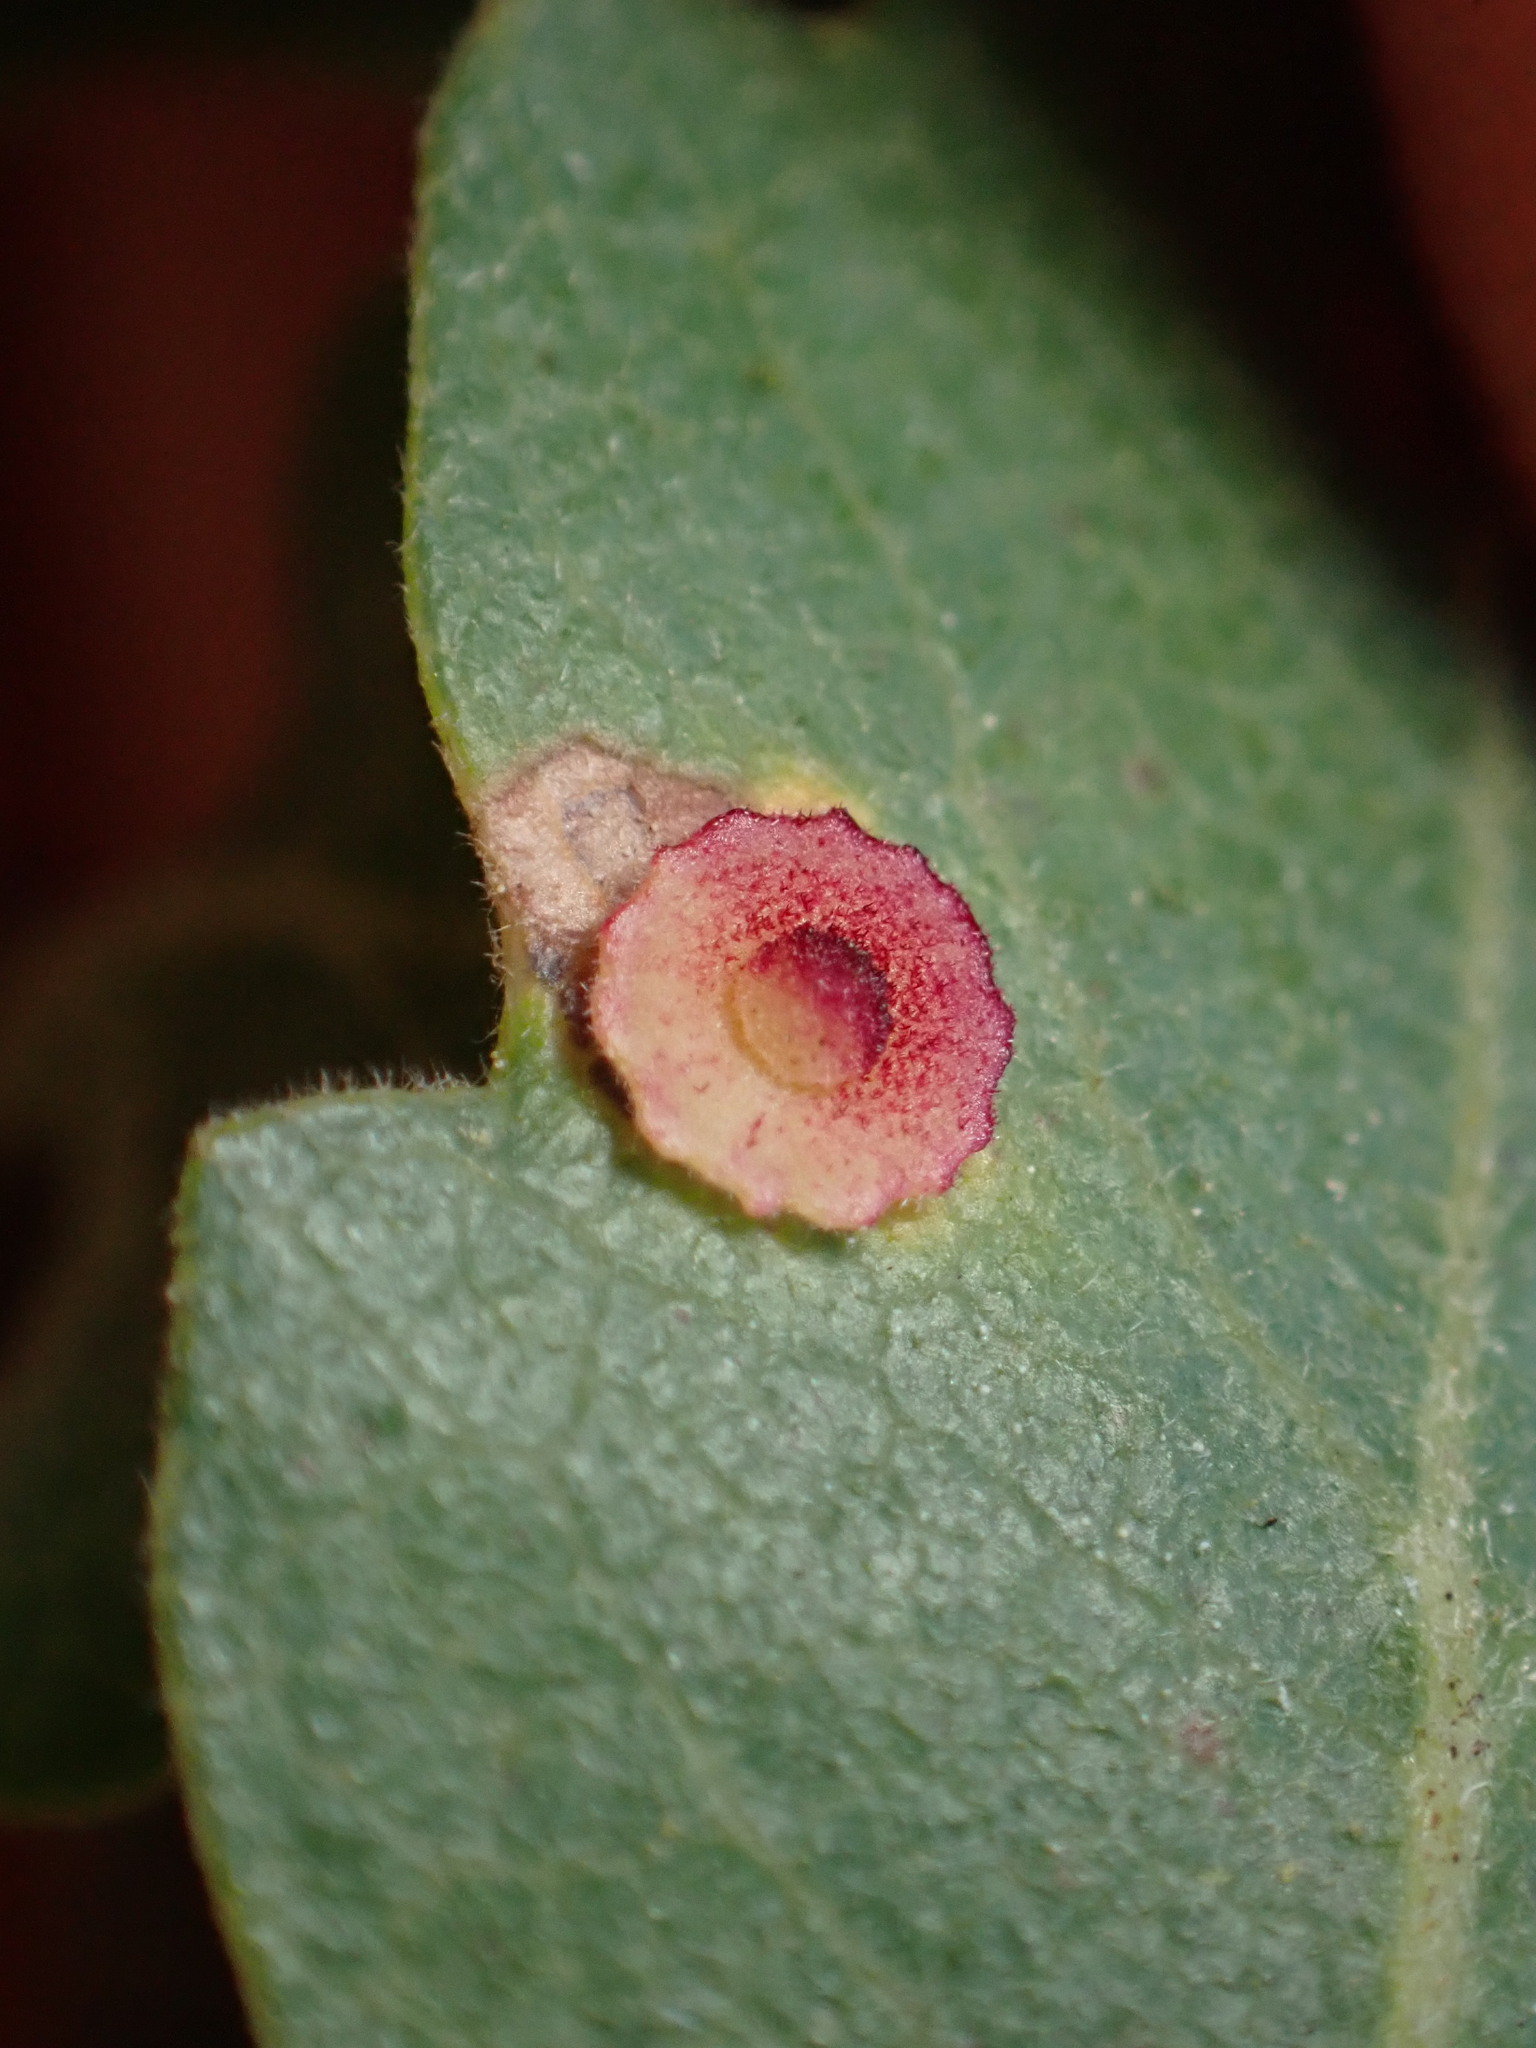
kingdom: Animalia
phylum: Arthropoda
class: Insecta
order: Hymenoptera
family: Cynipidae
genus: Andricus
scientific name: Andricus
